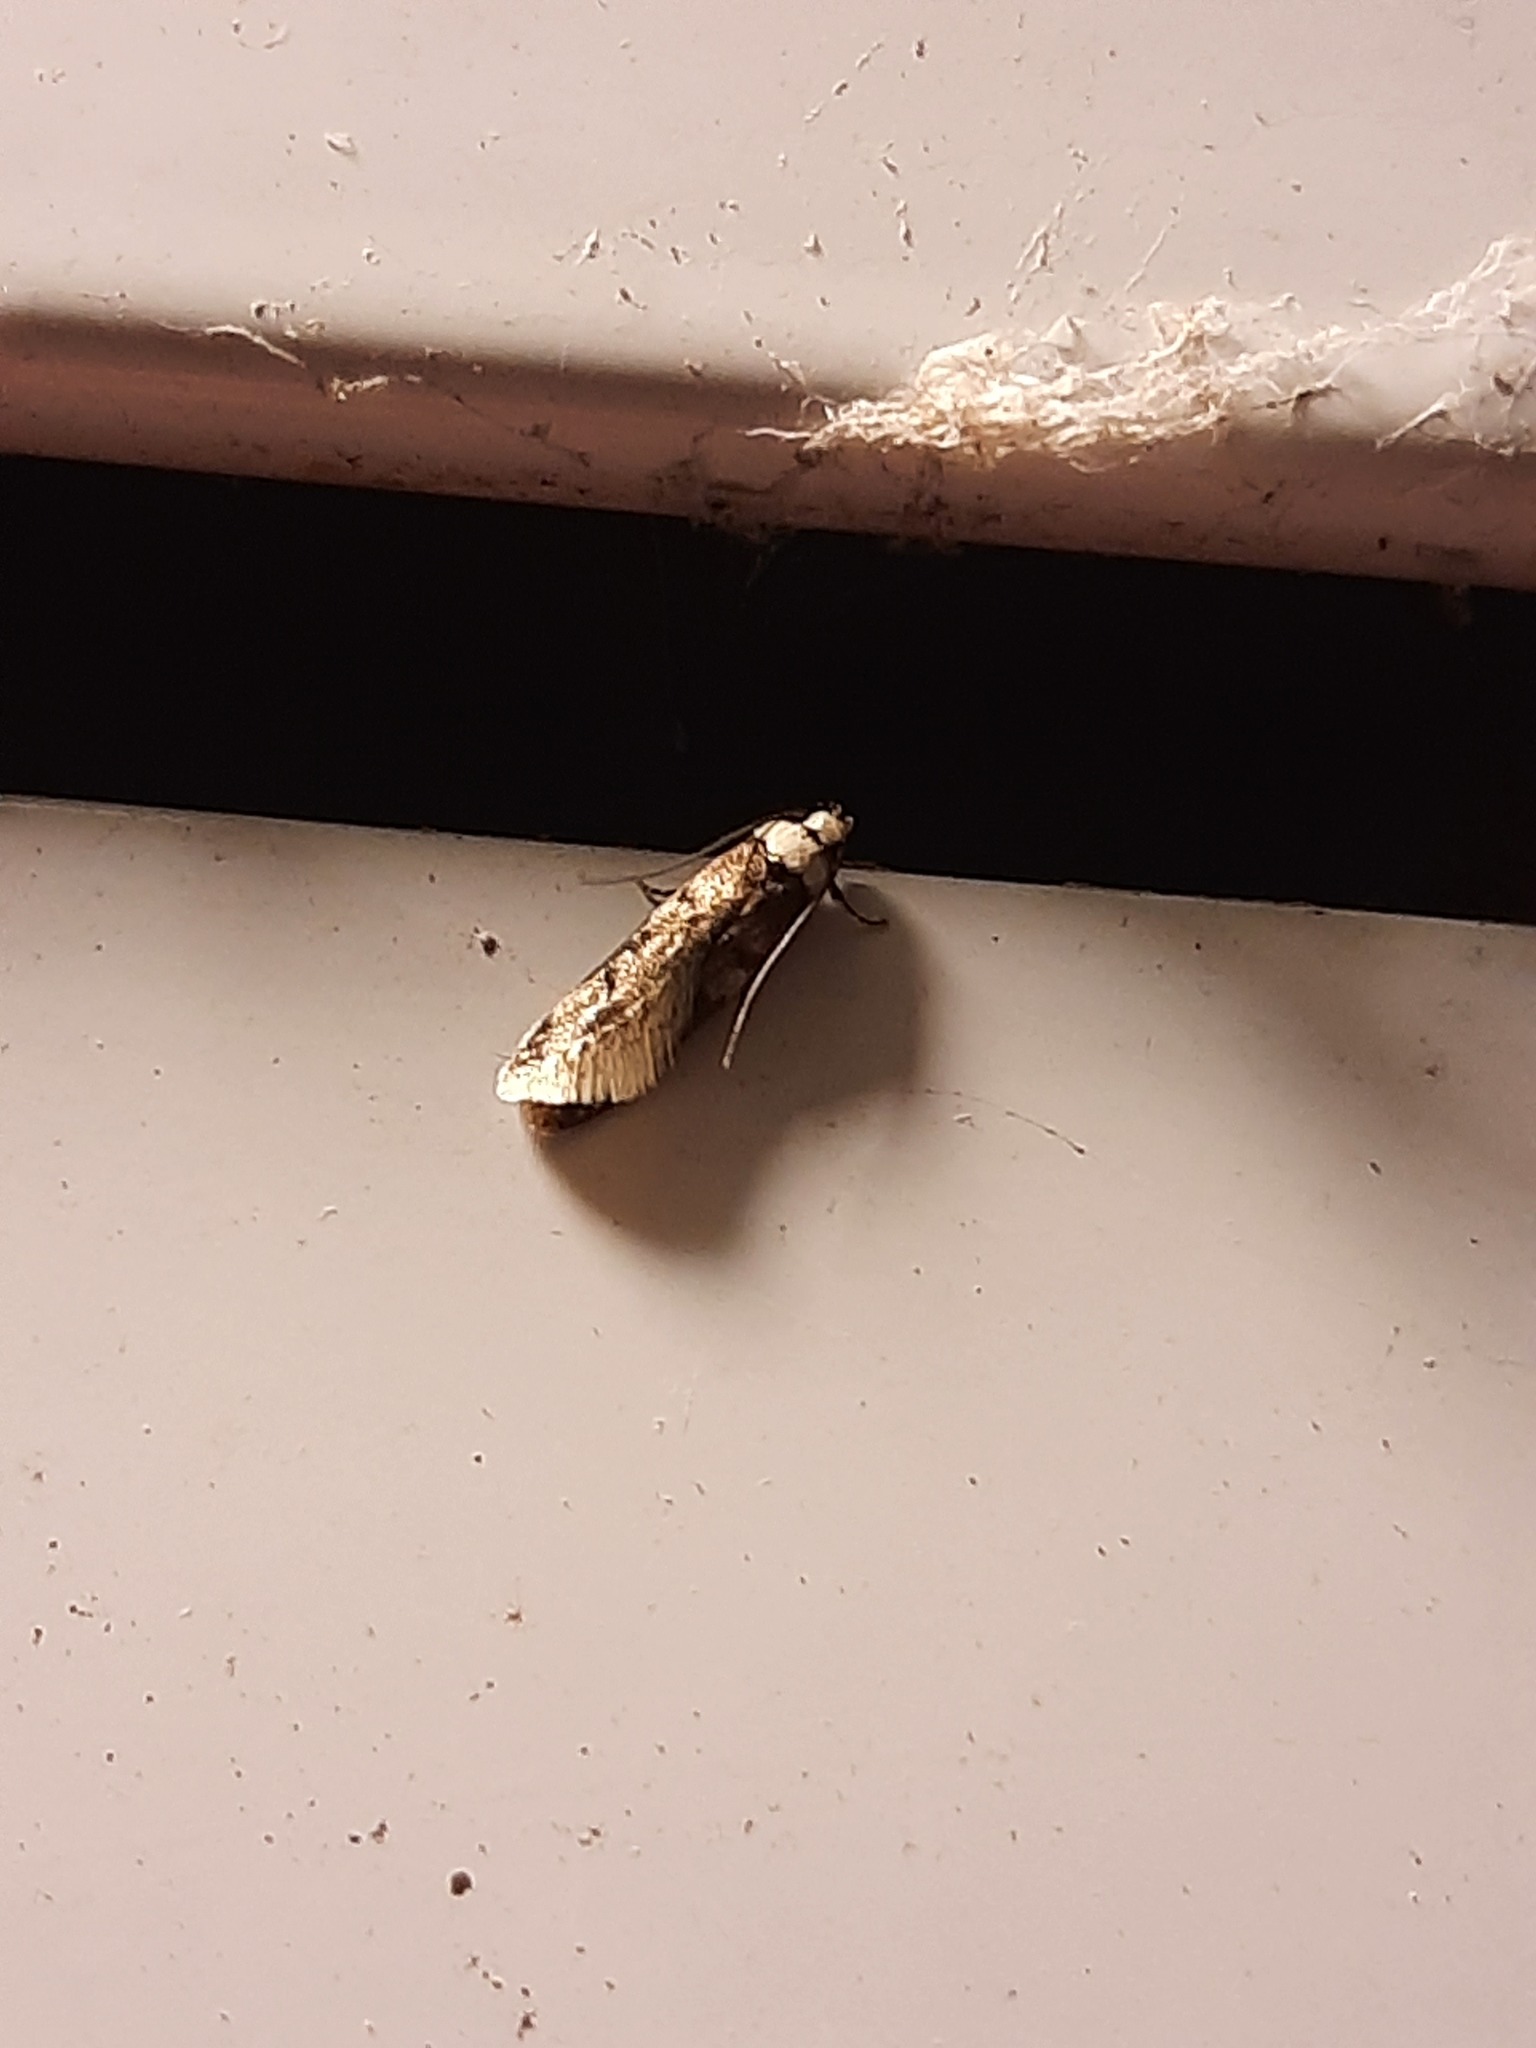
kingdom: Animalia
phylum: Arthropoda
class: Insecta
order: Lepidoptera
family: Oecophoridae
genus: Endrosis
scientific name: Endrosis sarcitrella
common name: White-shouldered house moth
